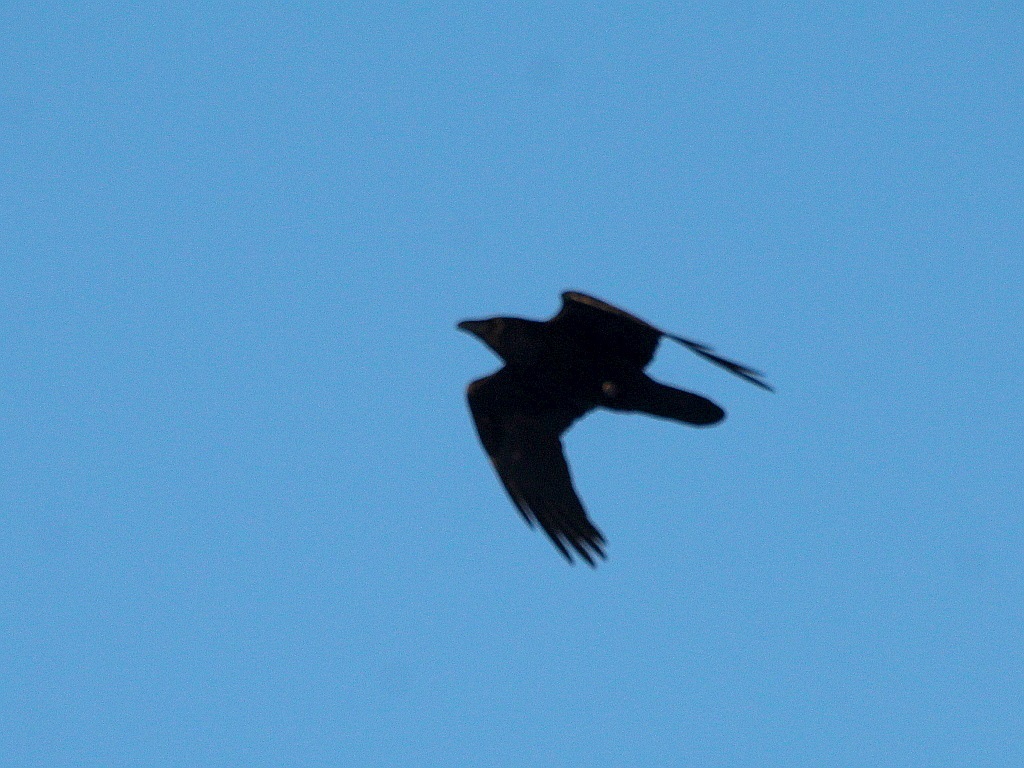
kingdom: Animalia
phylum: Chordata
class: Aves
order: Passeriformes
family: Corvidae
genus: Corvus
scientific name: Corvus corax
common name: Common raven
